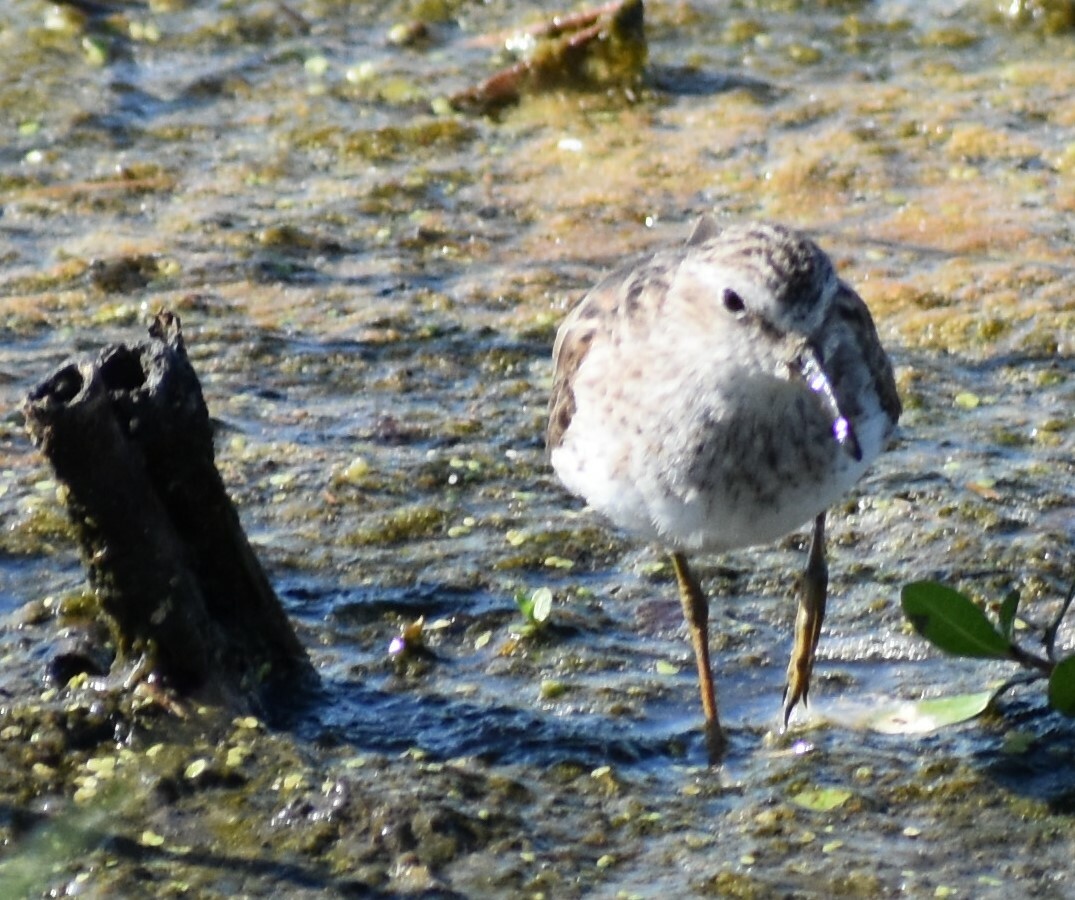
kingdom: Animalia
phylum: Chordata
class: Aves
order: Charadriiformes
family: Scolopacidae
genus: Calidris
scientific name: Calidris minutilla
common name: Least sandpiper
